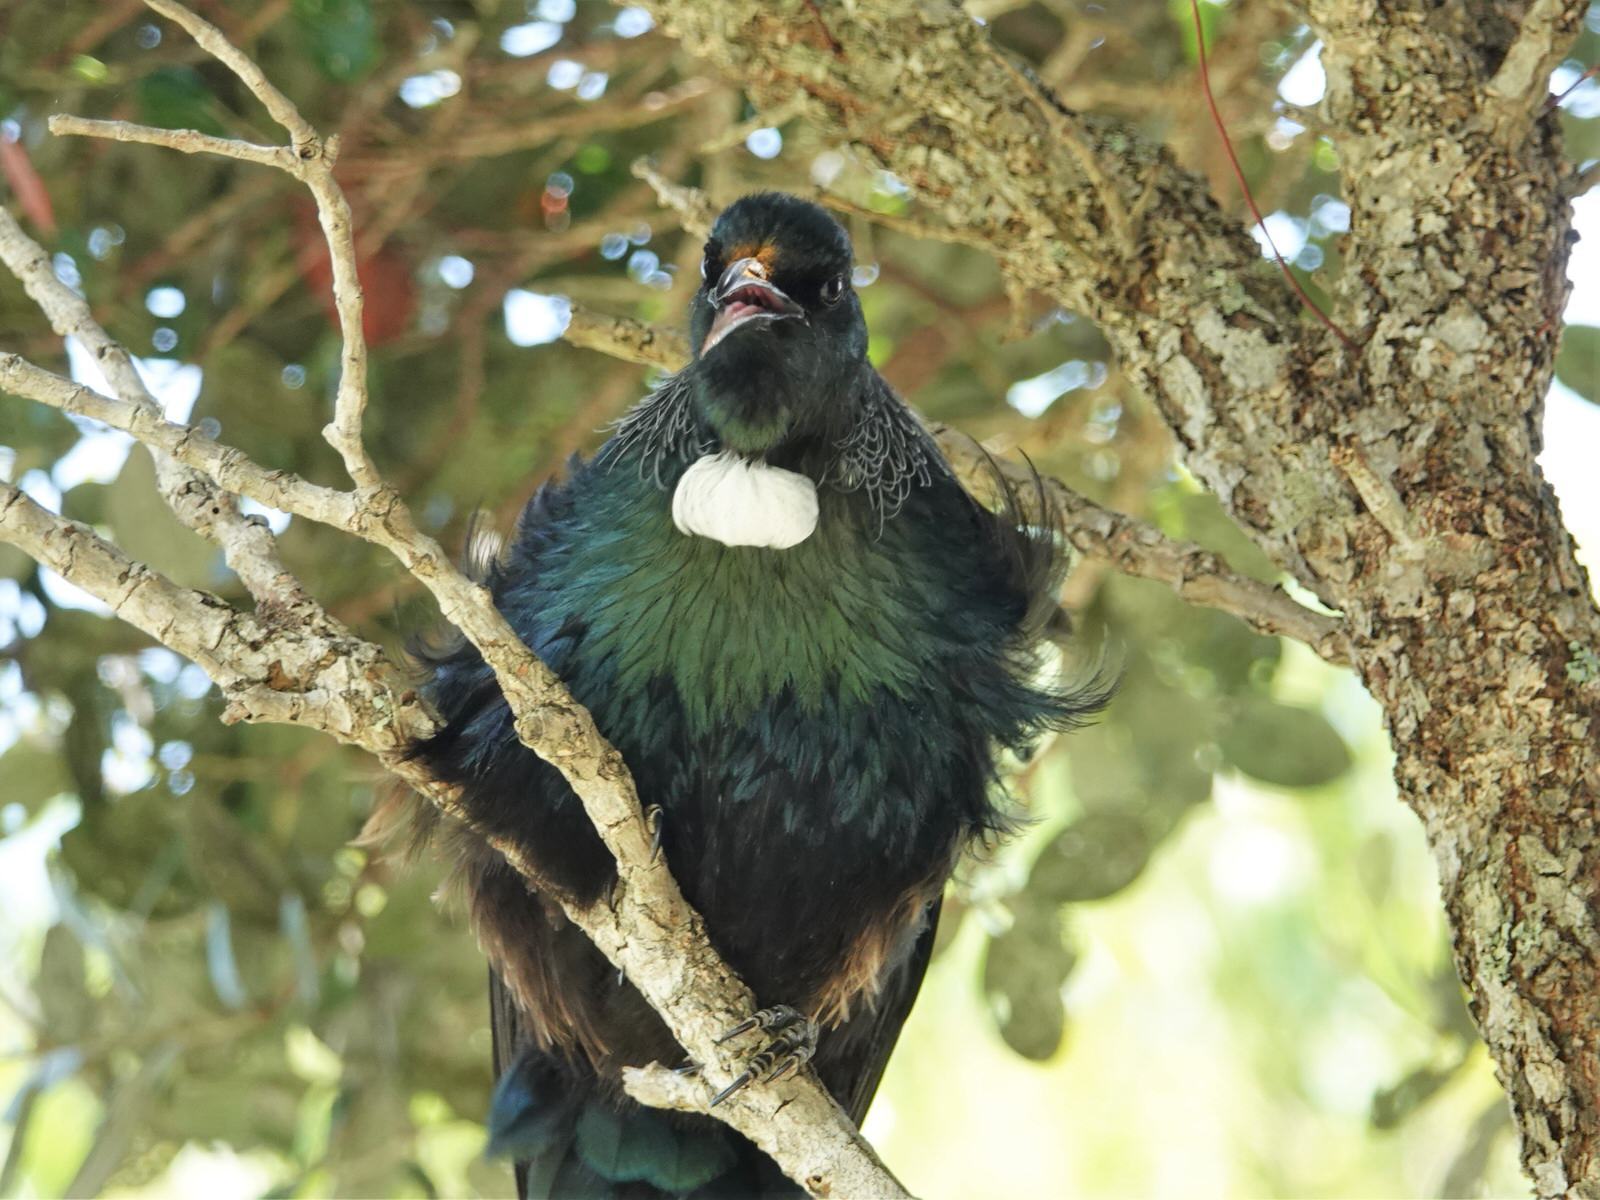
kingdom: Animalia
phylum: Chordata
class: Aves
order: Passeriformes
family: Meliphagidae
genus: Prosthemadera
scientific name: Prosthemadera novaeseelandiae
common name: Tui
